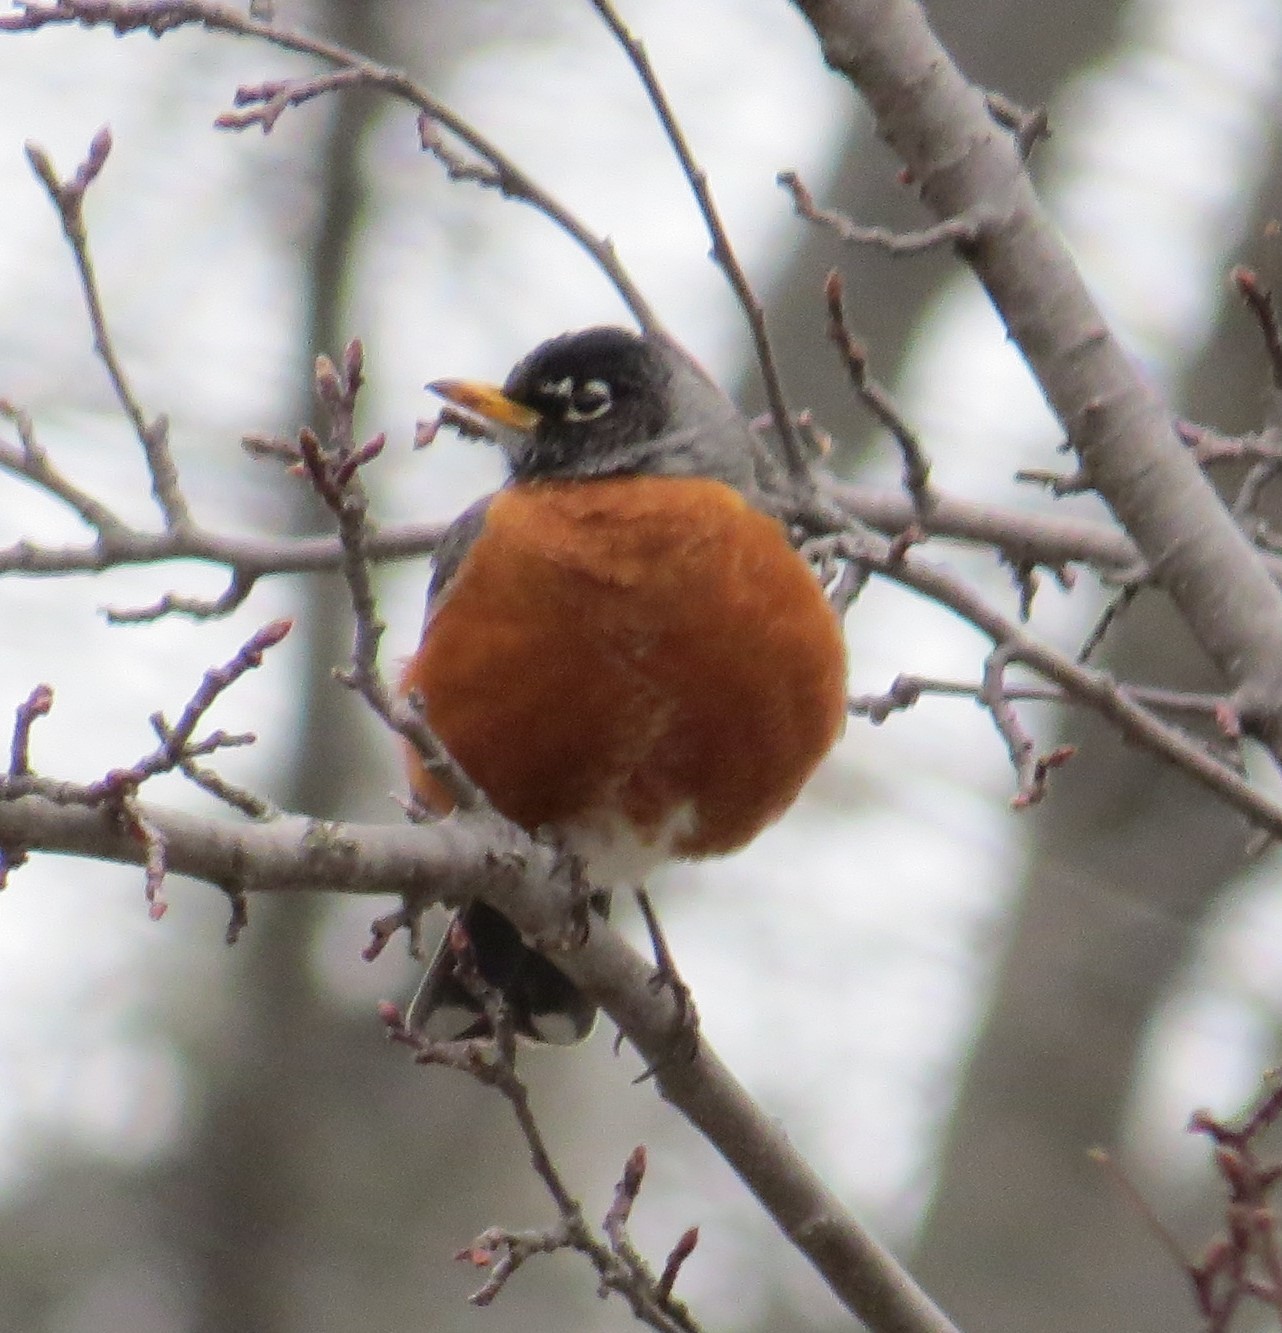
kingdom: Animalia
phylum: Chordata
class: Aves
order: Passeriformes
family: Turdidae
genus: Turdus
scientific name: Turdus migratorius
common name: American robin
